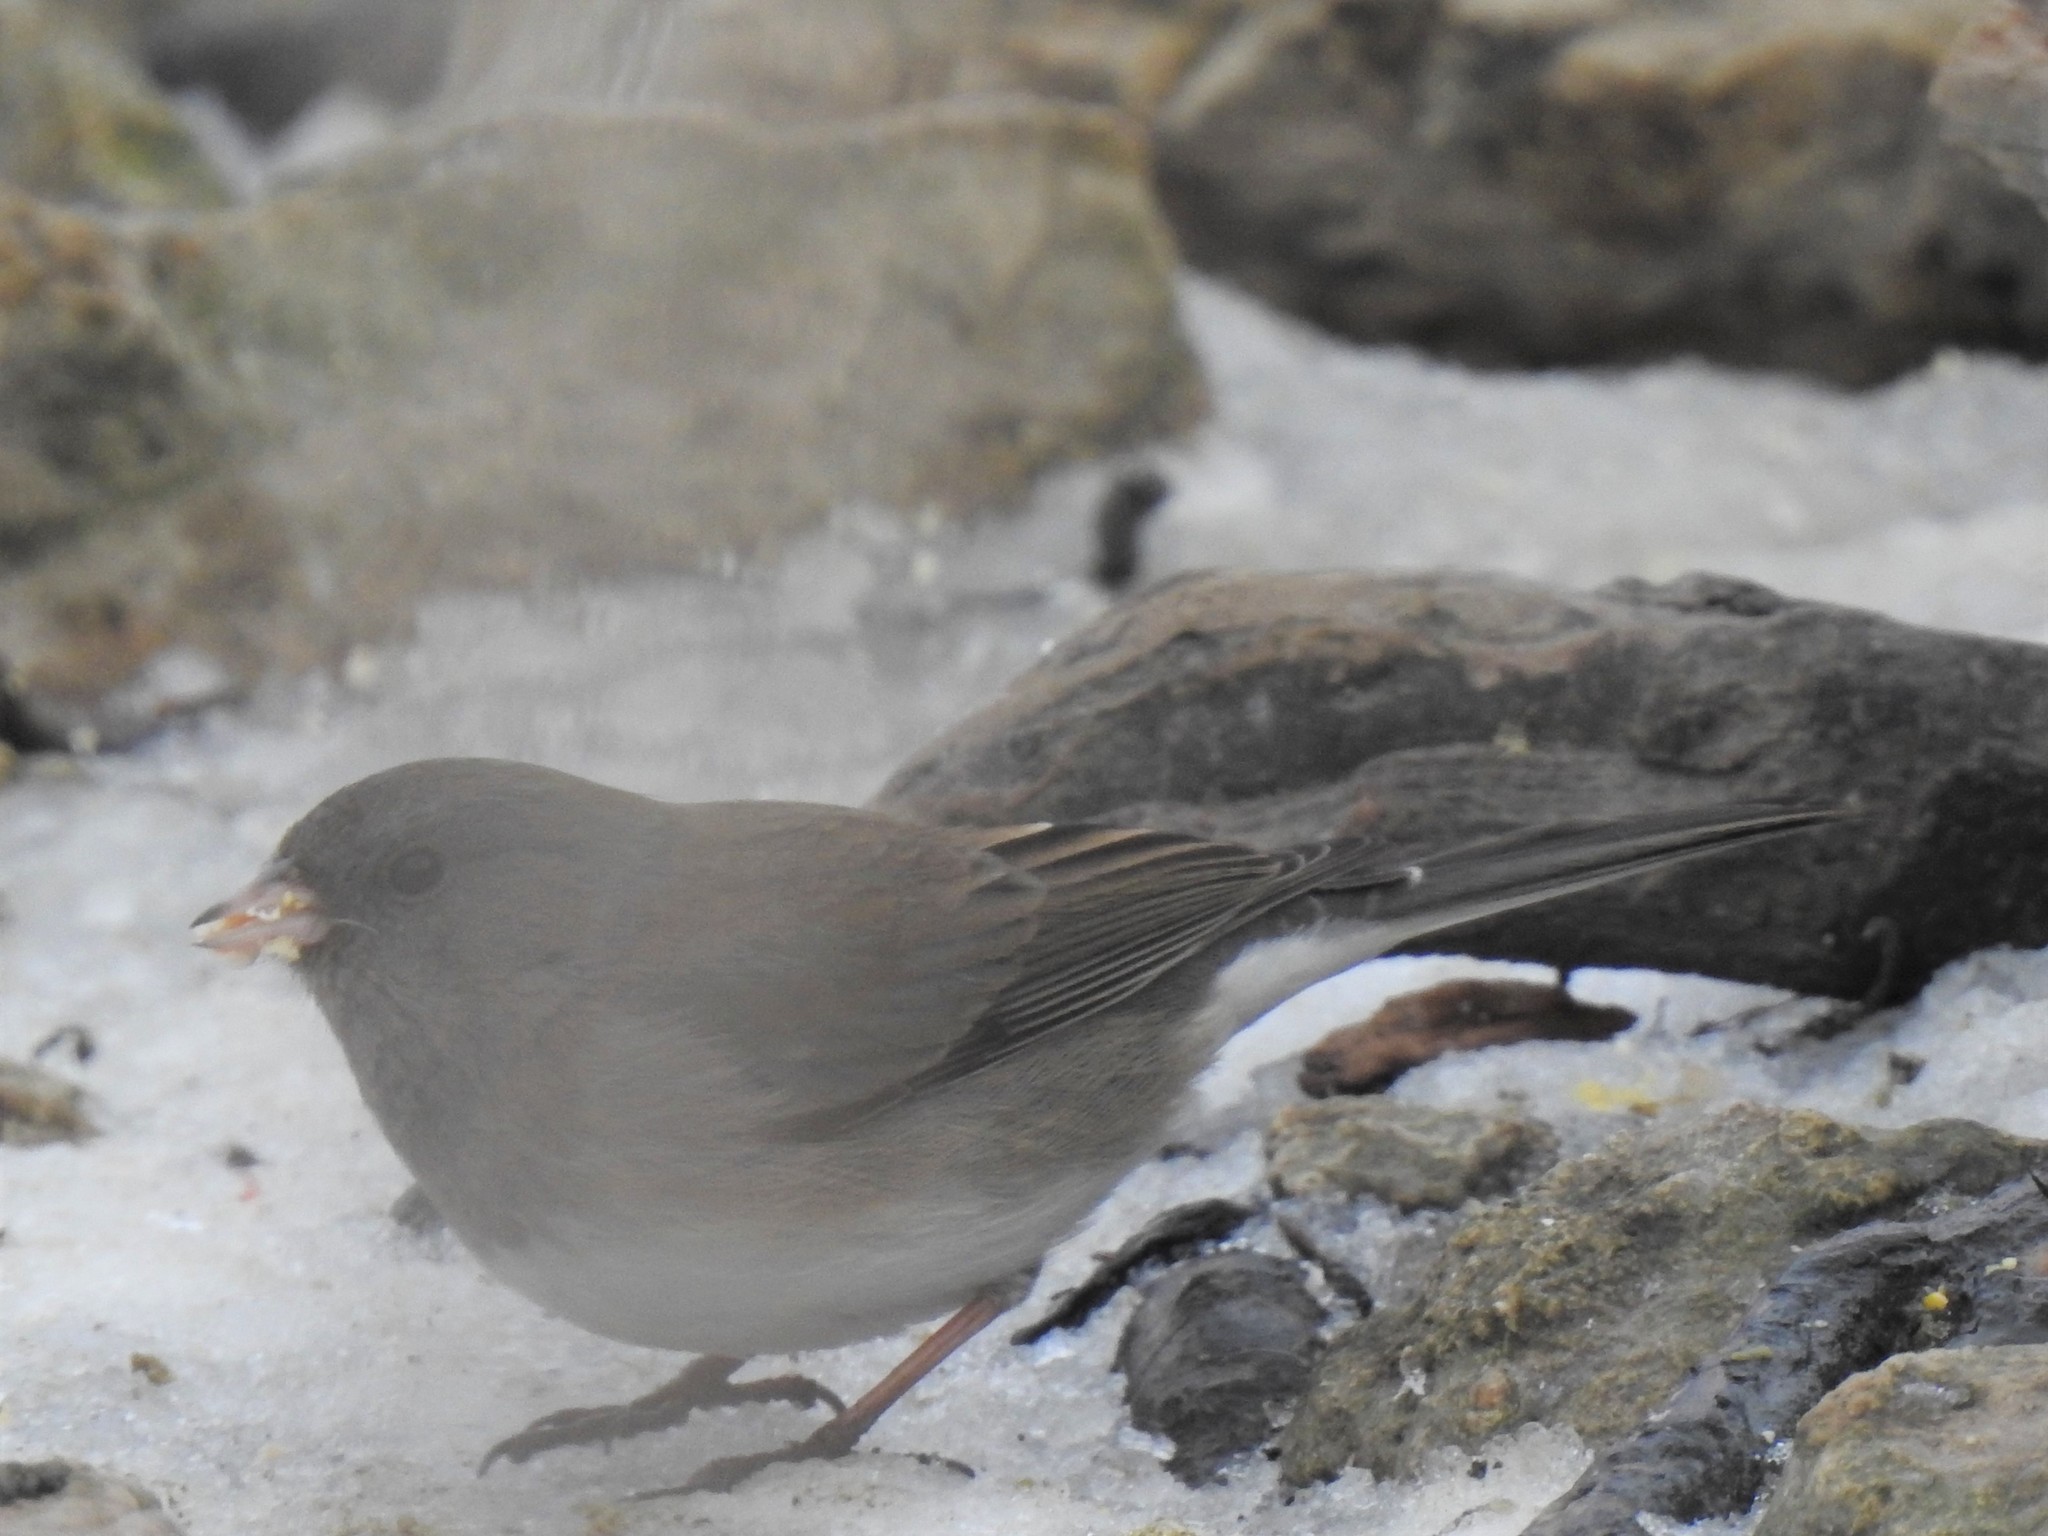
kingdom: Animalia
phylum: Chordata
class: Aves
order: Passeriformes
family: Passerellidae
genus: Junco
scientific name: Junco hyemalis
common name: Dark-eyed junco
